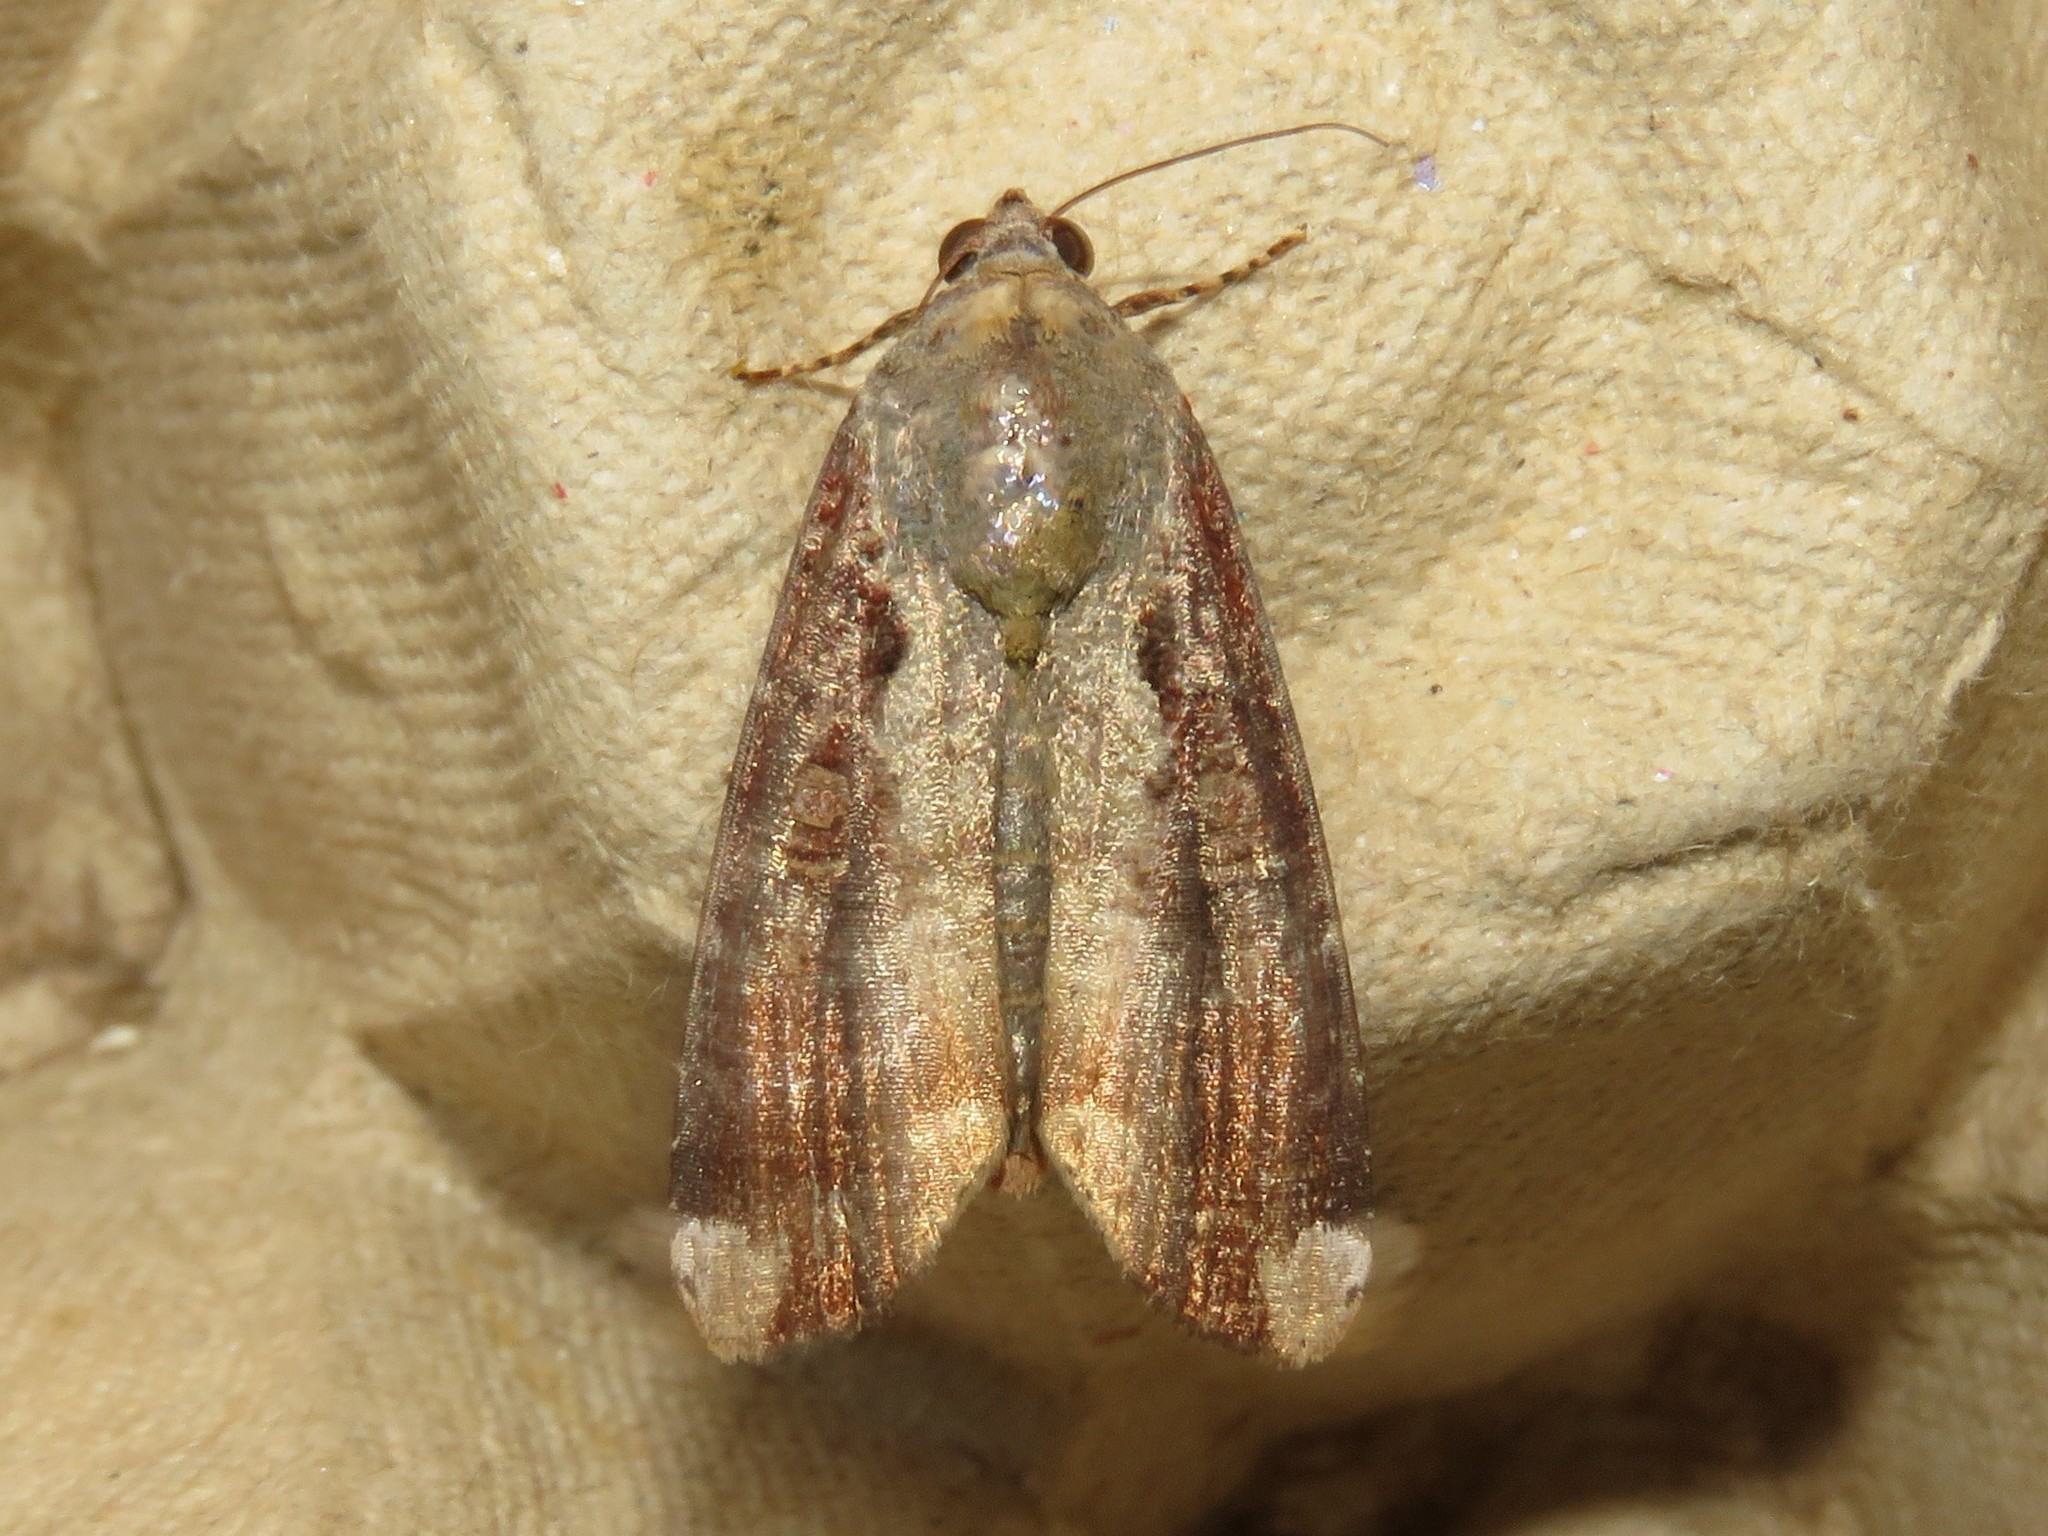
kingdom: Animalia
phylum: Arthropoda
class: Insecta
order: Lepidoptera
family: Noctuidae
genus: Magusa
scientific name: Magusa divaricata
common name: Orb narrow-winged moth
